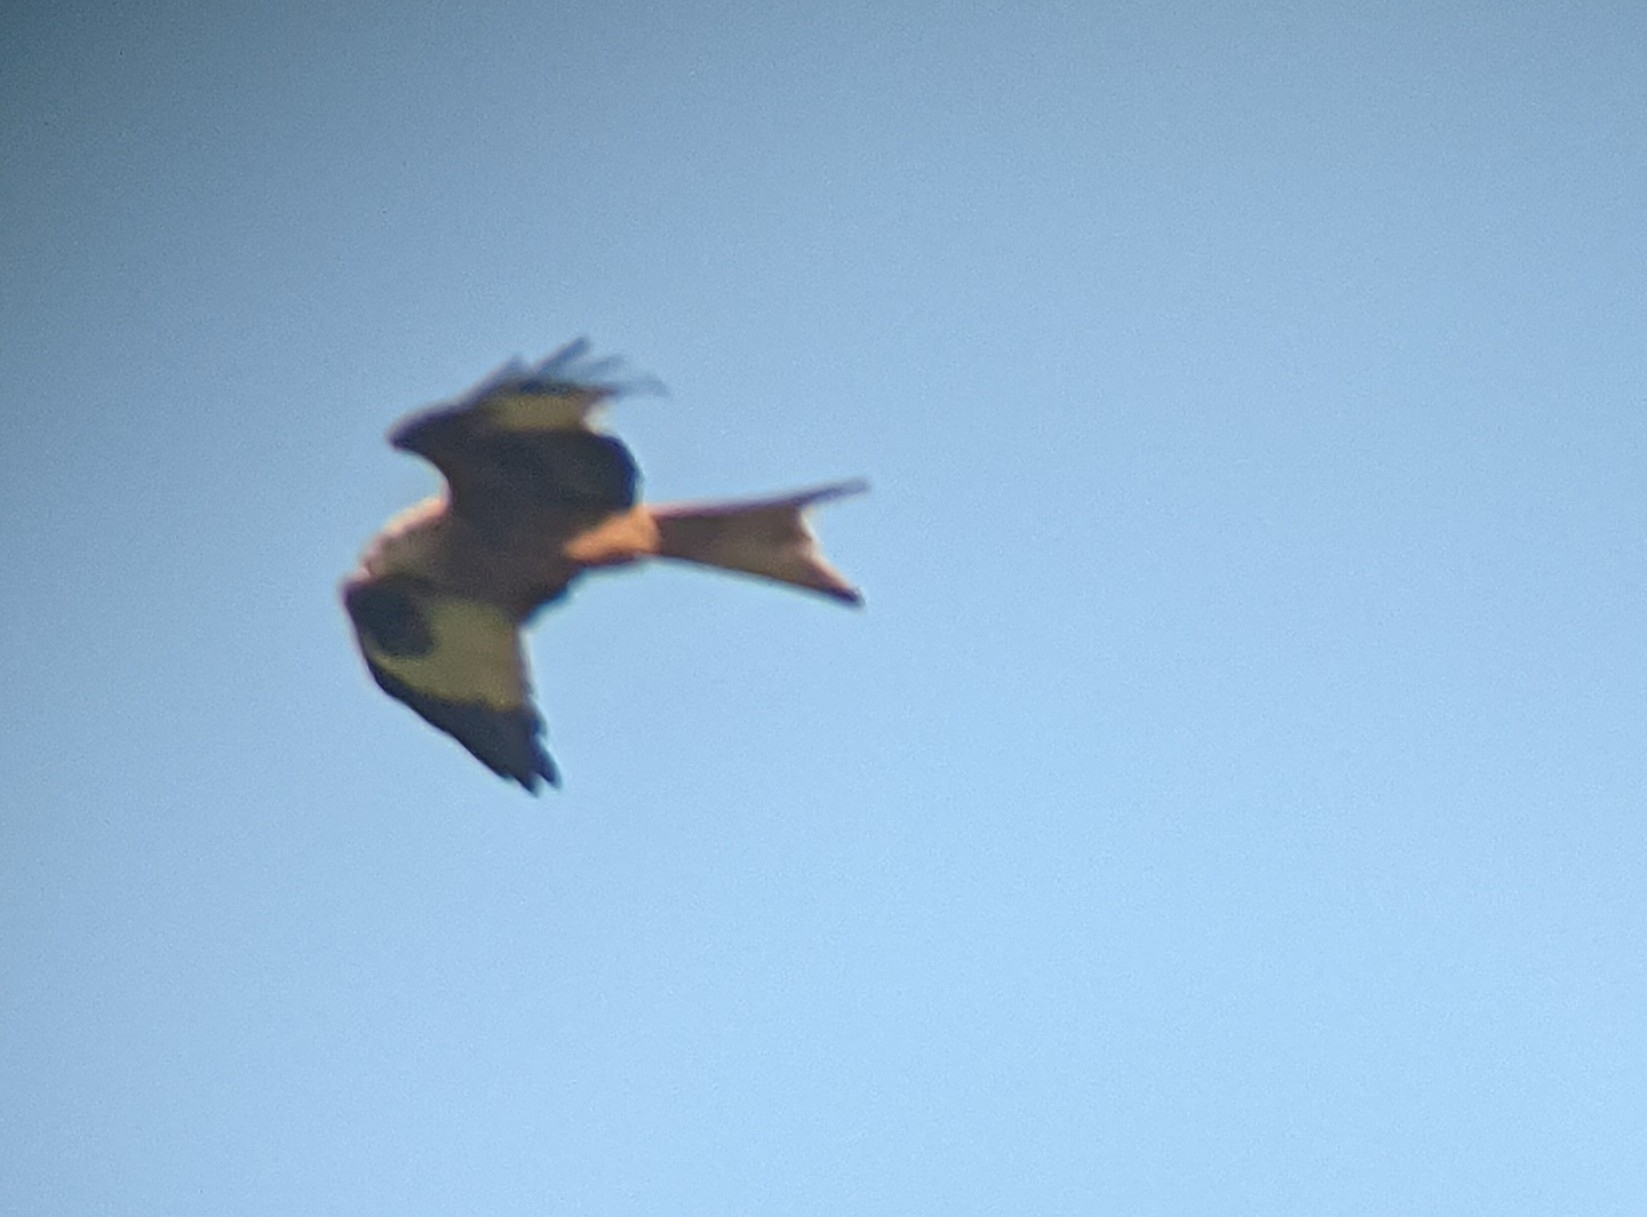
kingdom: Animalia
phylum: Chordata
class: Aves
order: Accipitriformes
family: Accipitridae
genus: Milvus
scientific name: Milvus milvus
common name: Red kite
